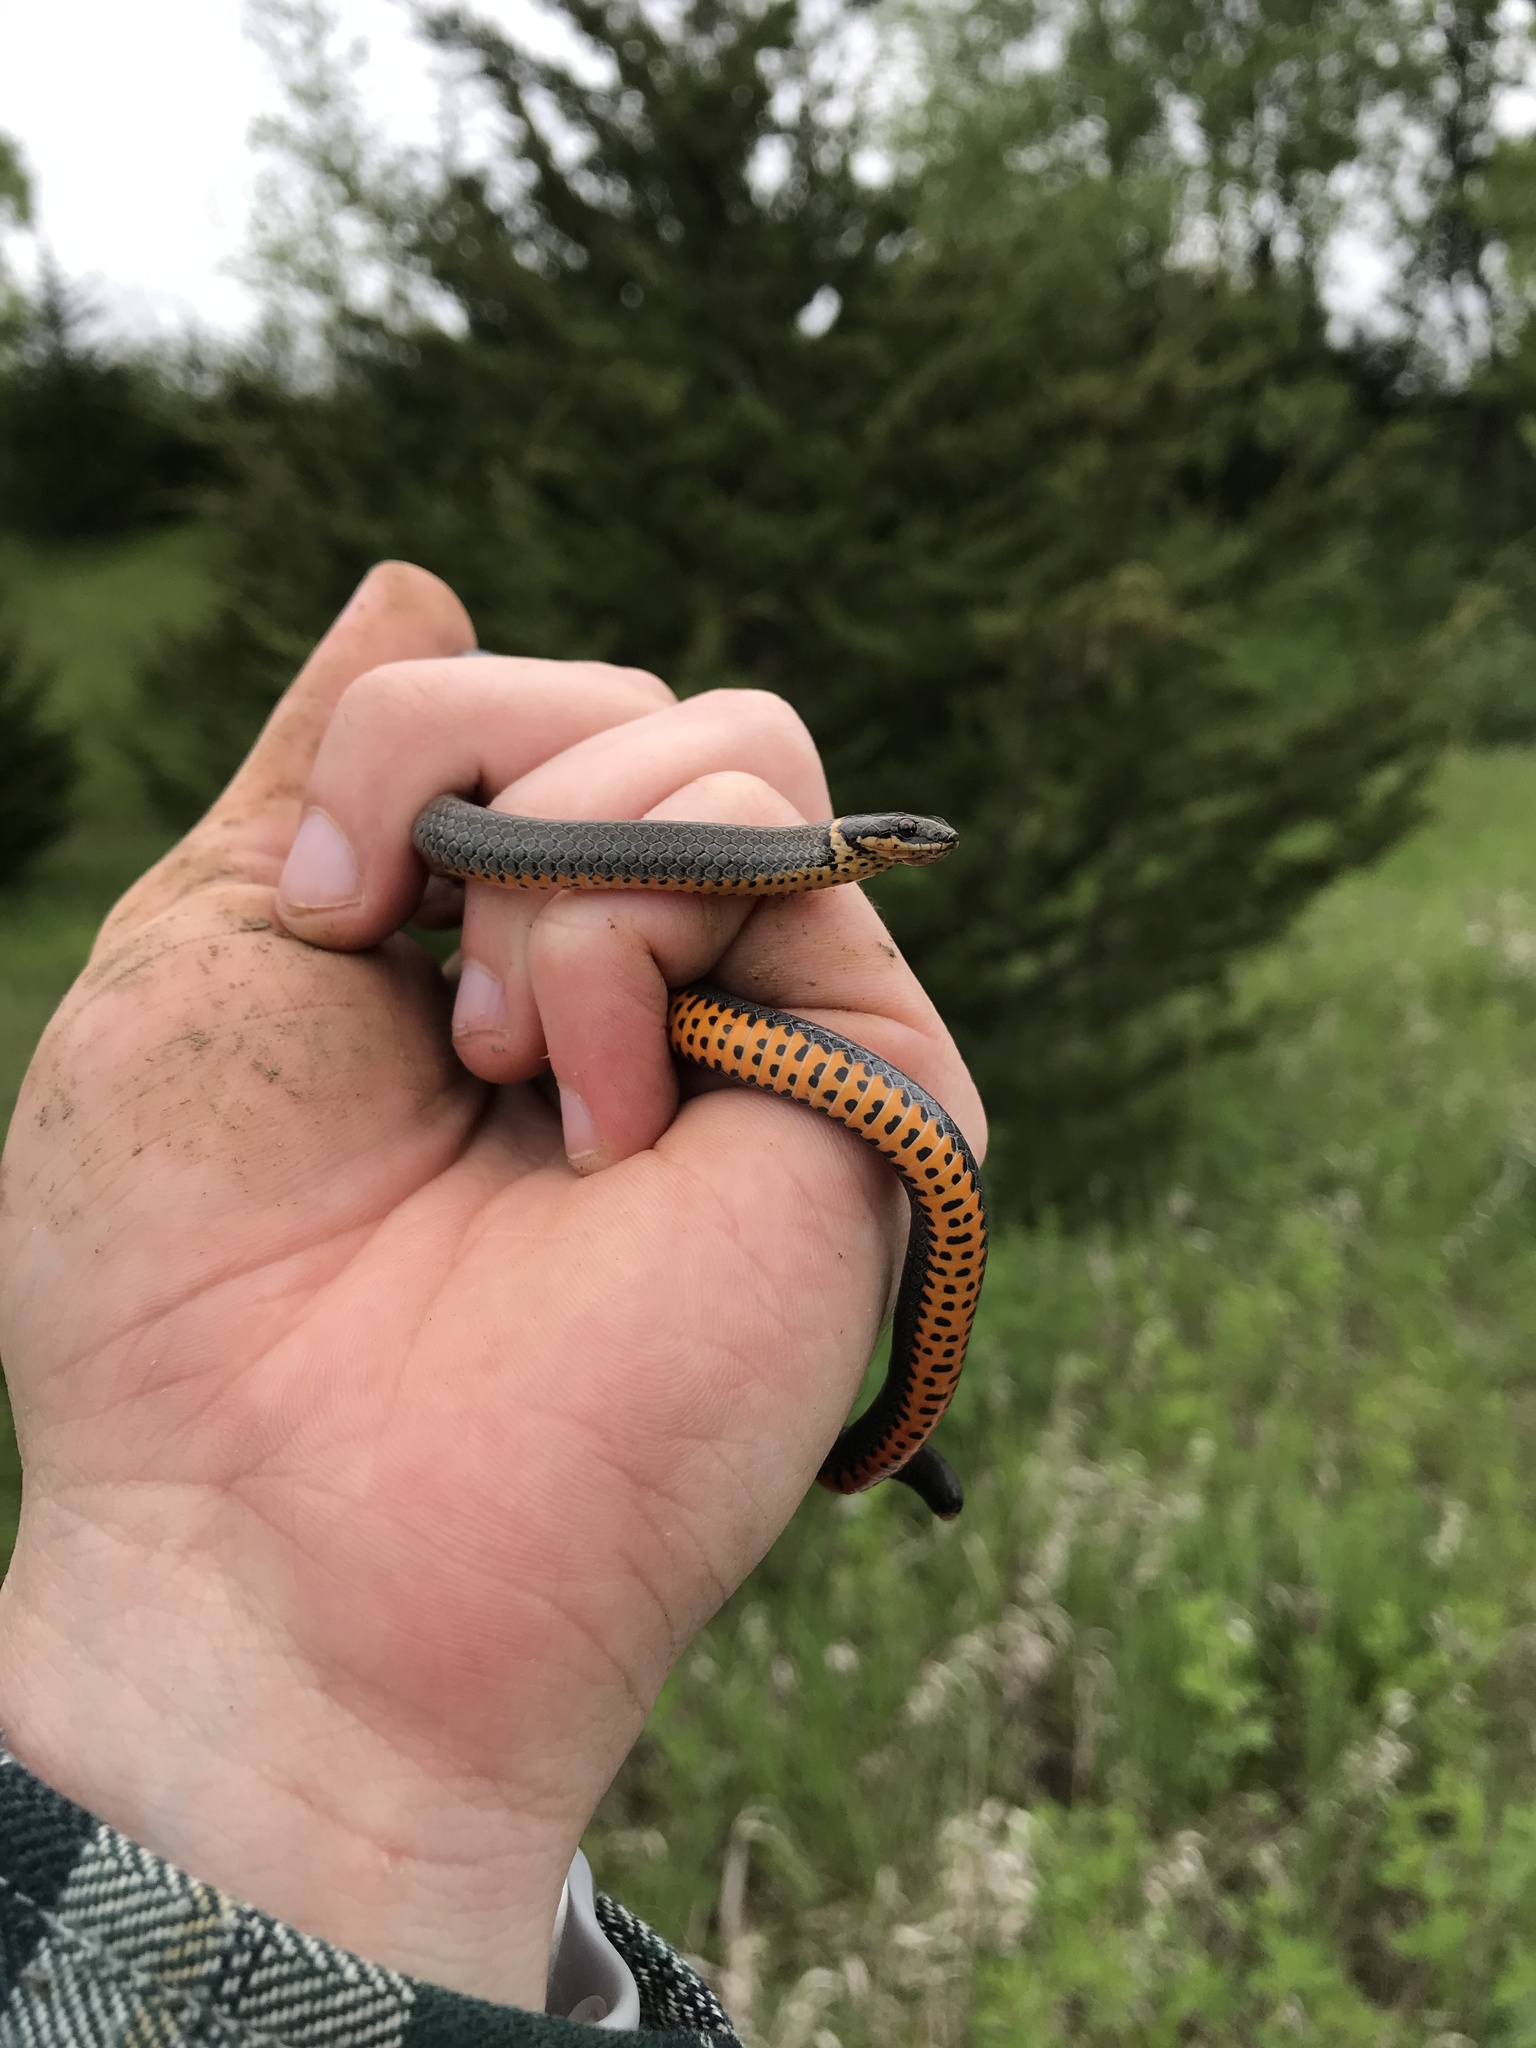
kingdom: Animalia
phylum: Chordata
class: Squamata
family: Colubridae
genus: Diadophis
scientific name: Diadophis punctatus
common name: Ringneck snake
